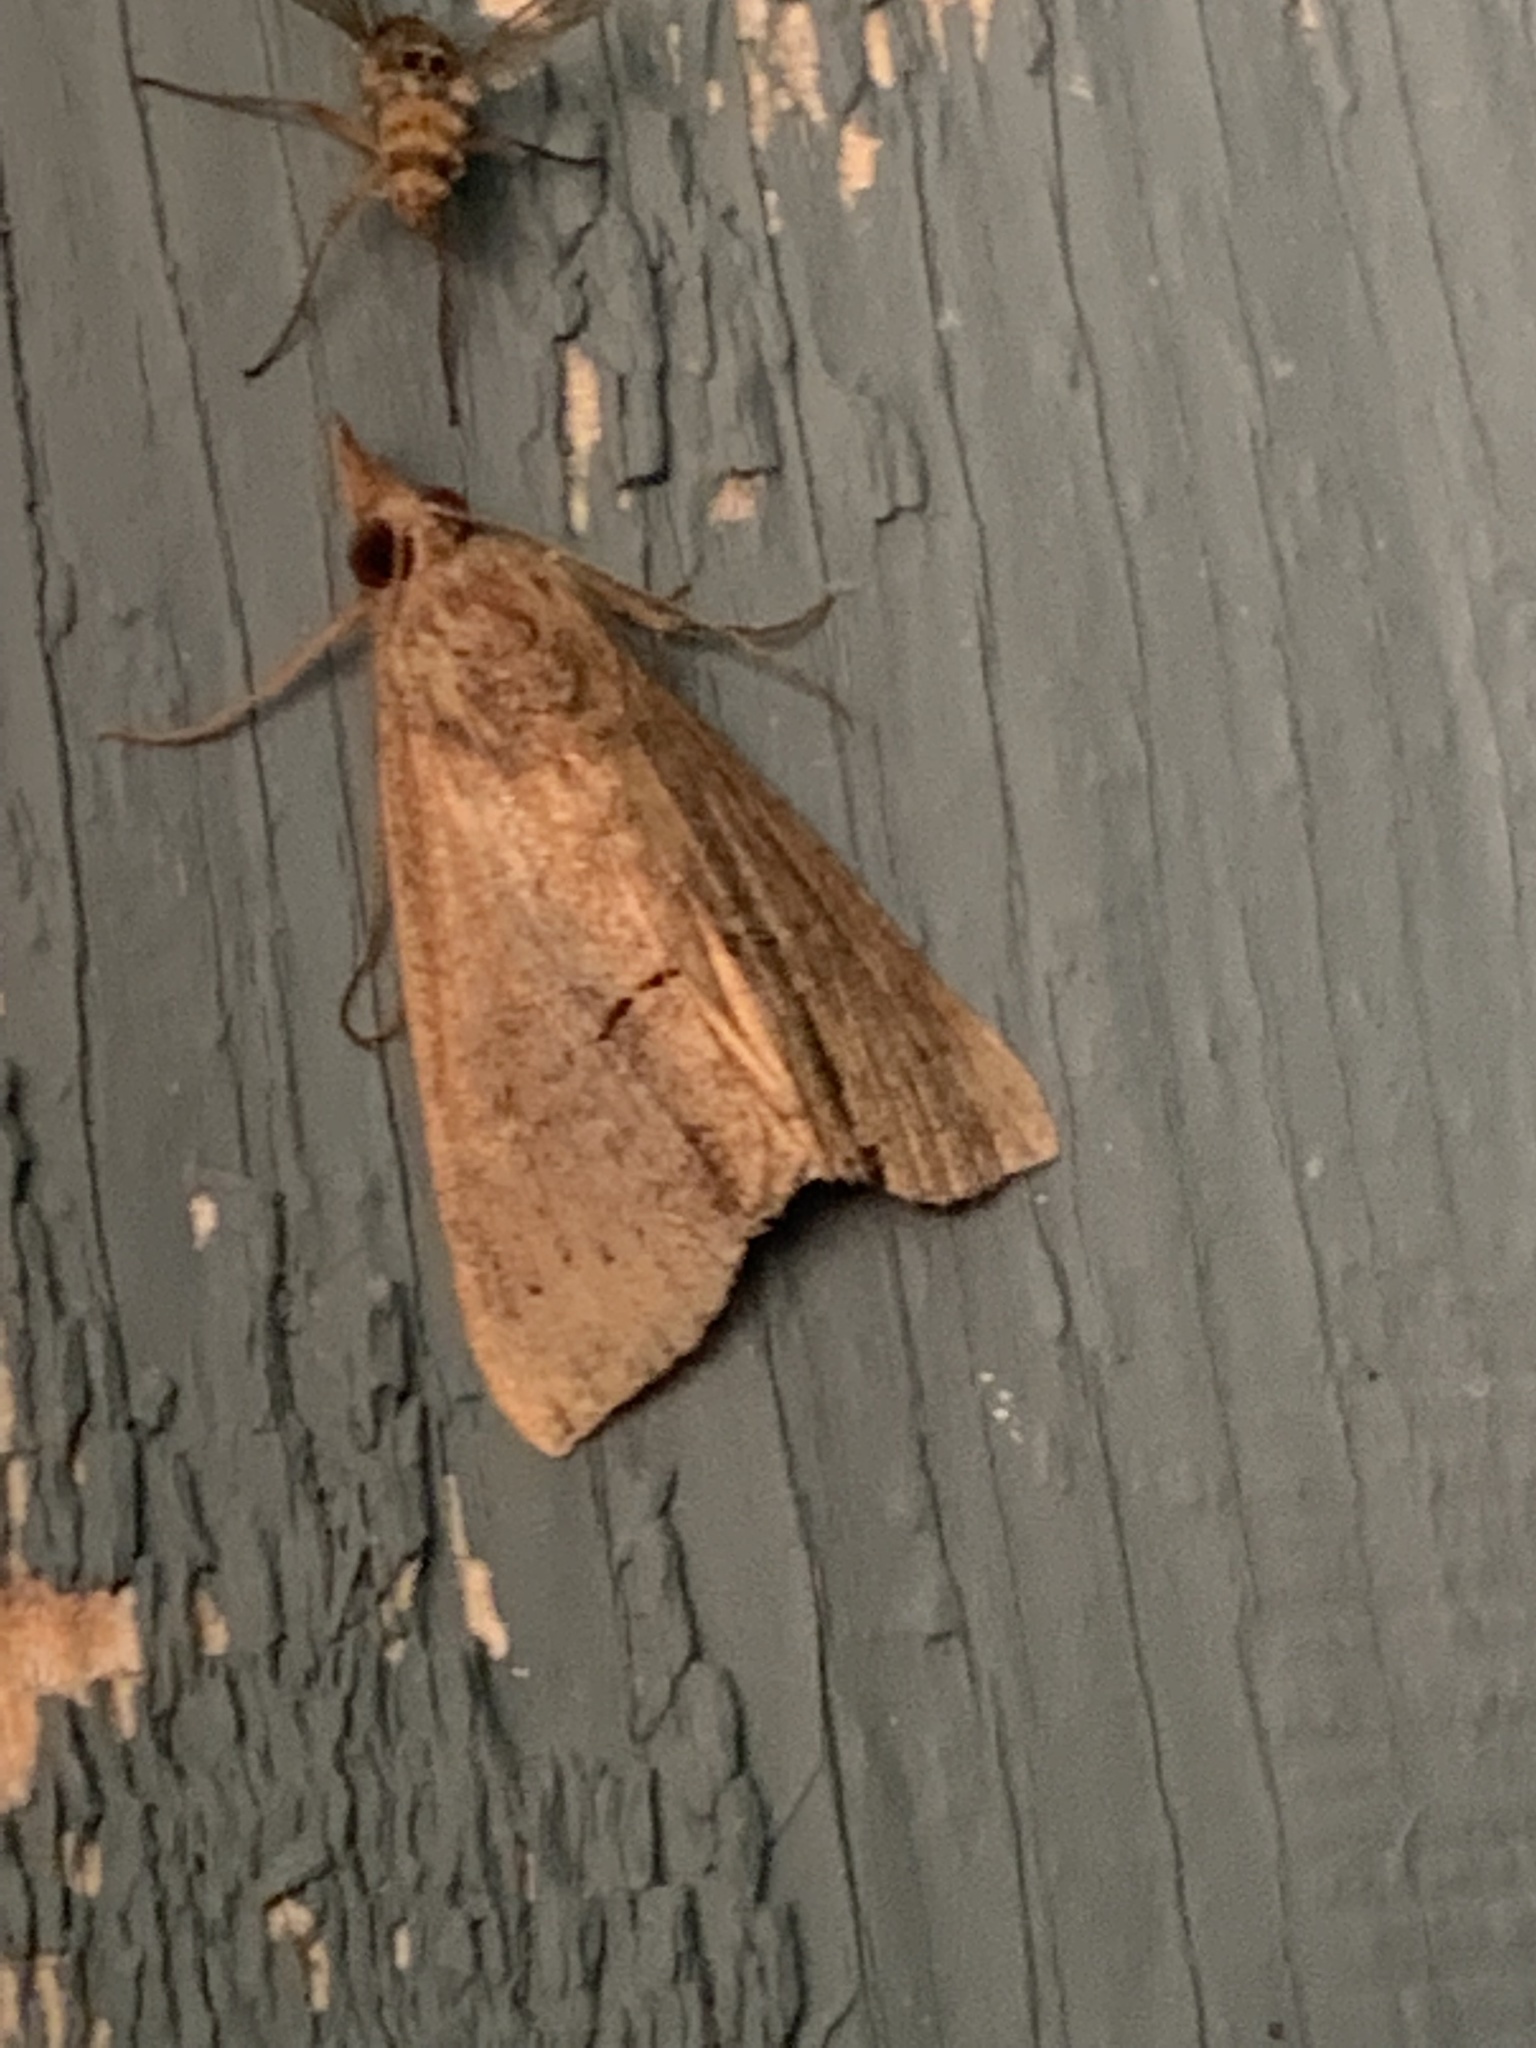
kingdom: Animalia
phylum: Arthropoda
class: Insecta
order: Lepidoptera
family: Erebidae
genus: Hypena
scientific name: Hypena scabra
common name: Green cloverworm
